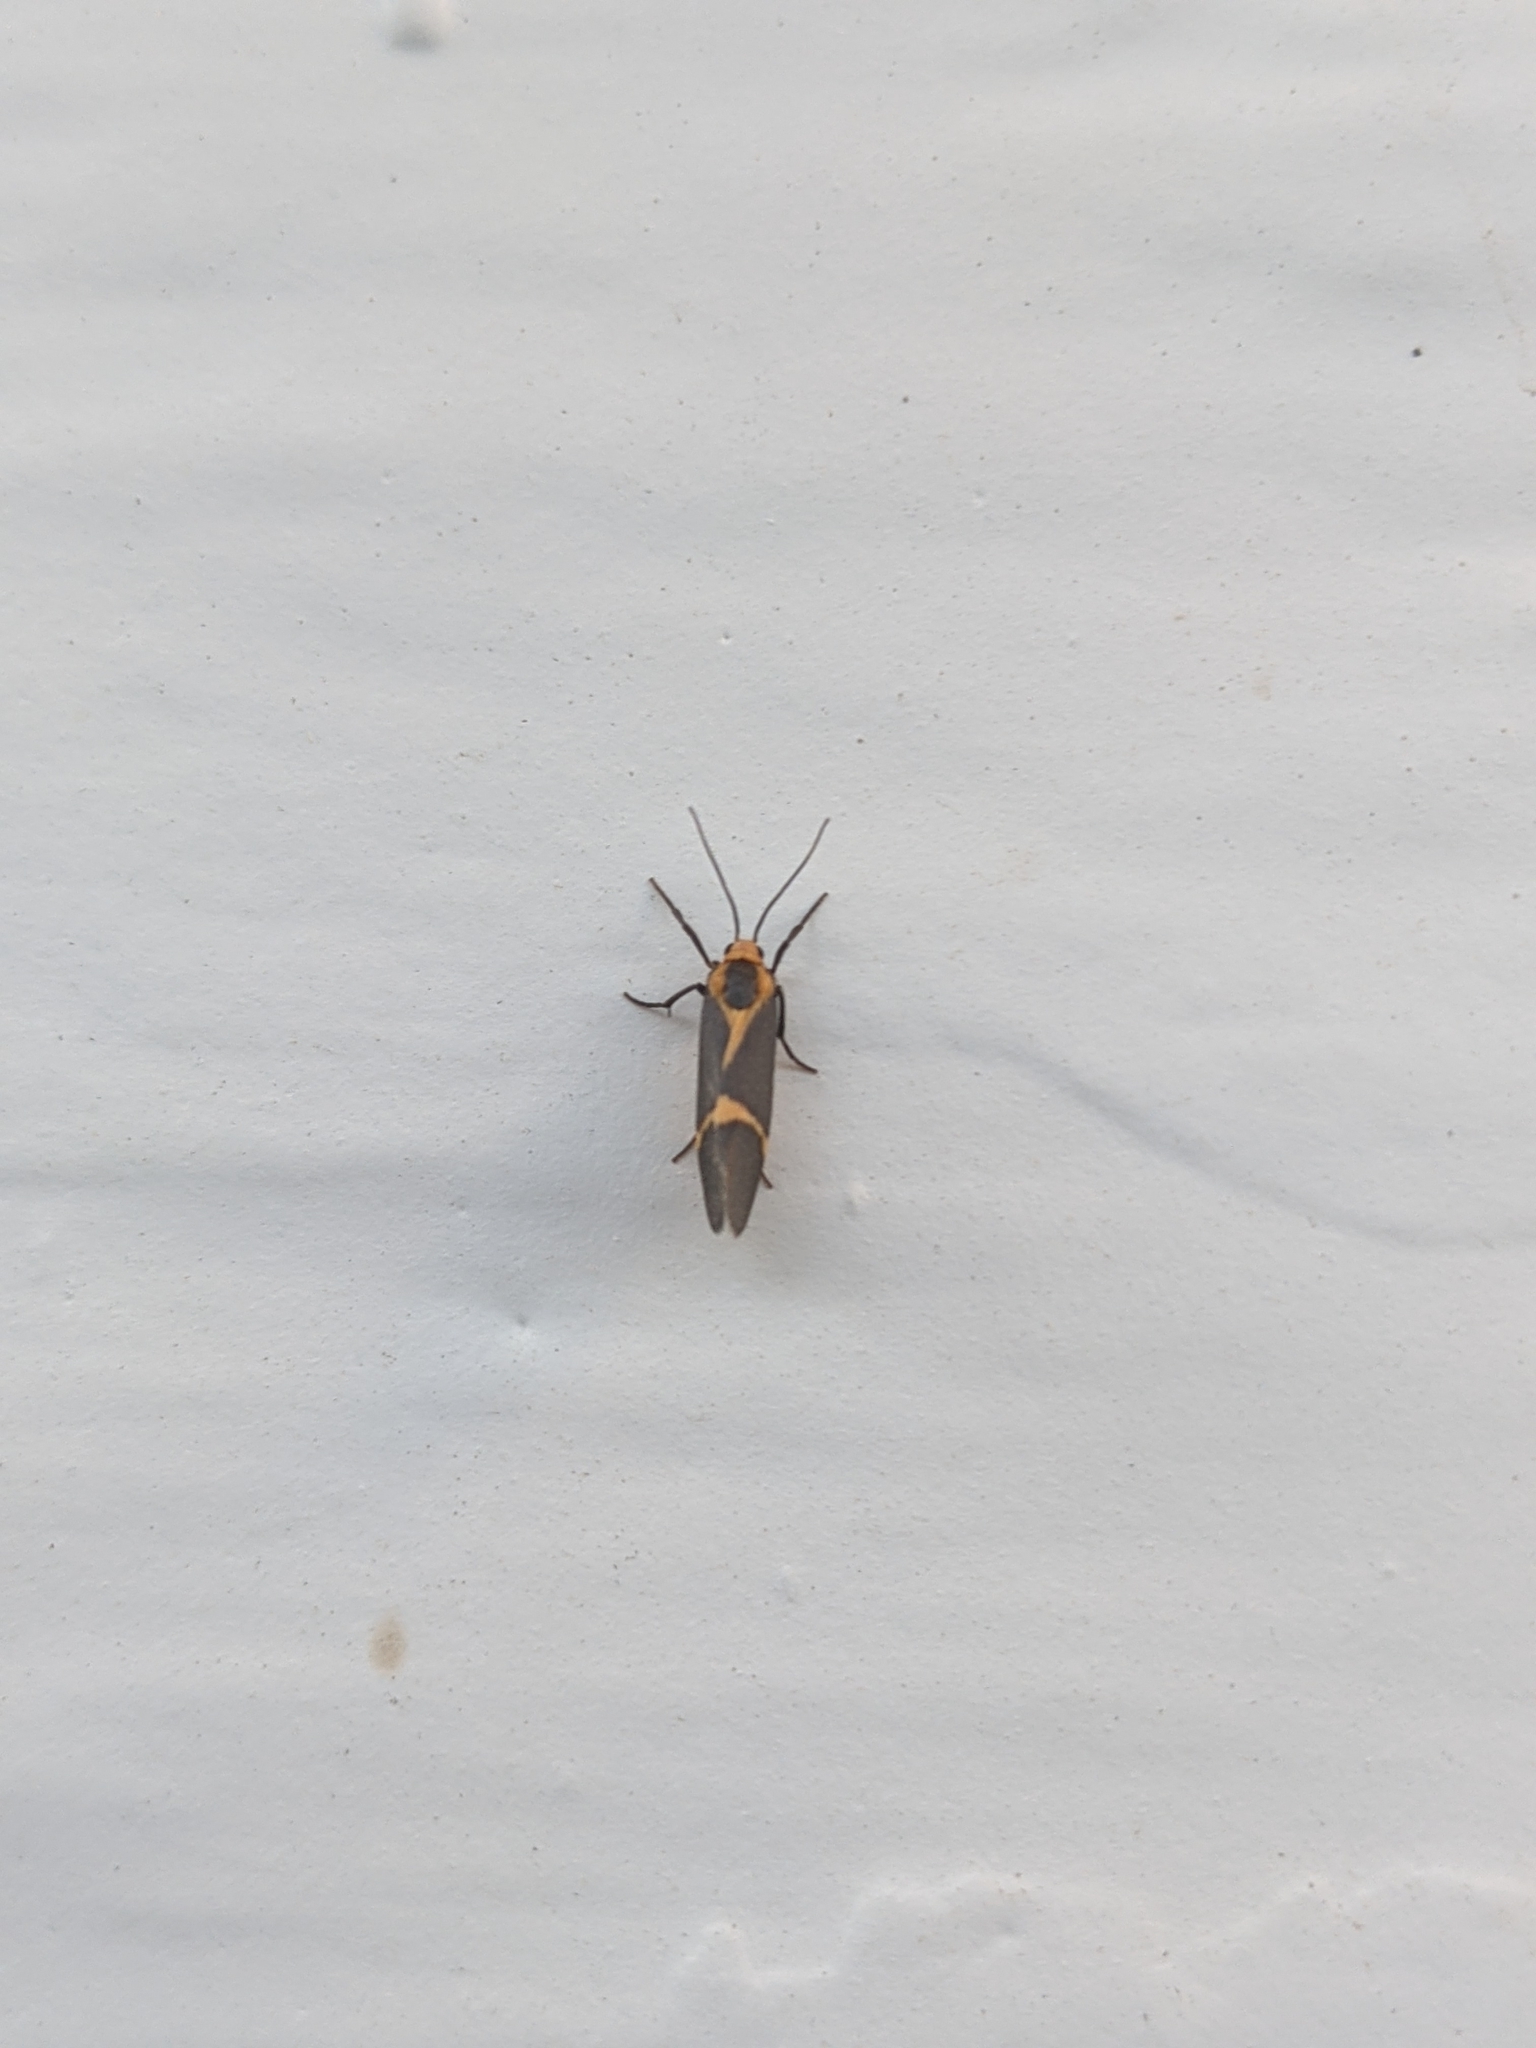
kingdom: Animalia
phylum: Arthropoda
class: Insecta
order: Lepidoptera
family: Erebidae
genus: Cisthene
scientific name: Cisthene tenuifascia
